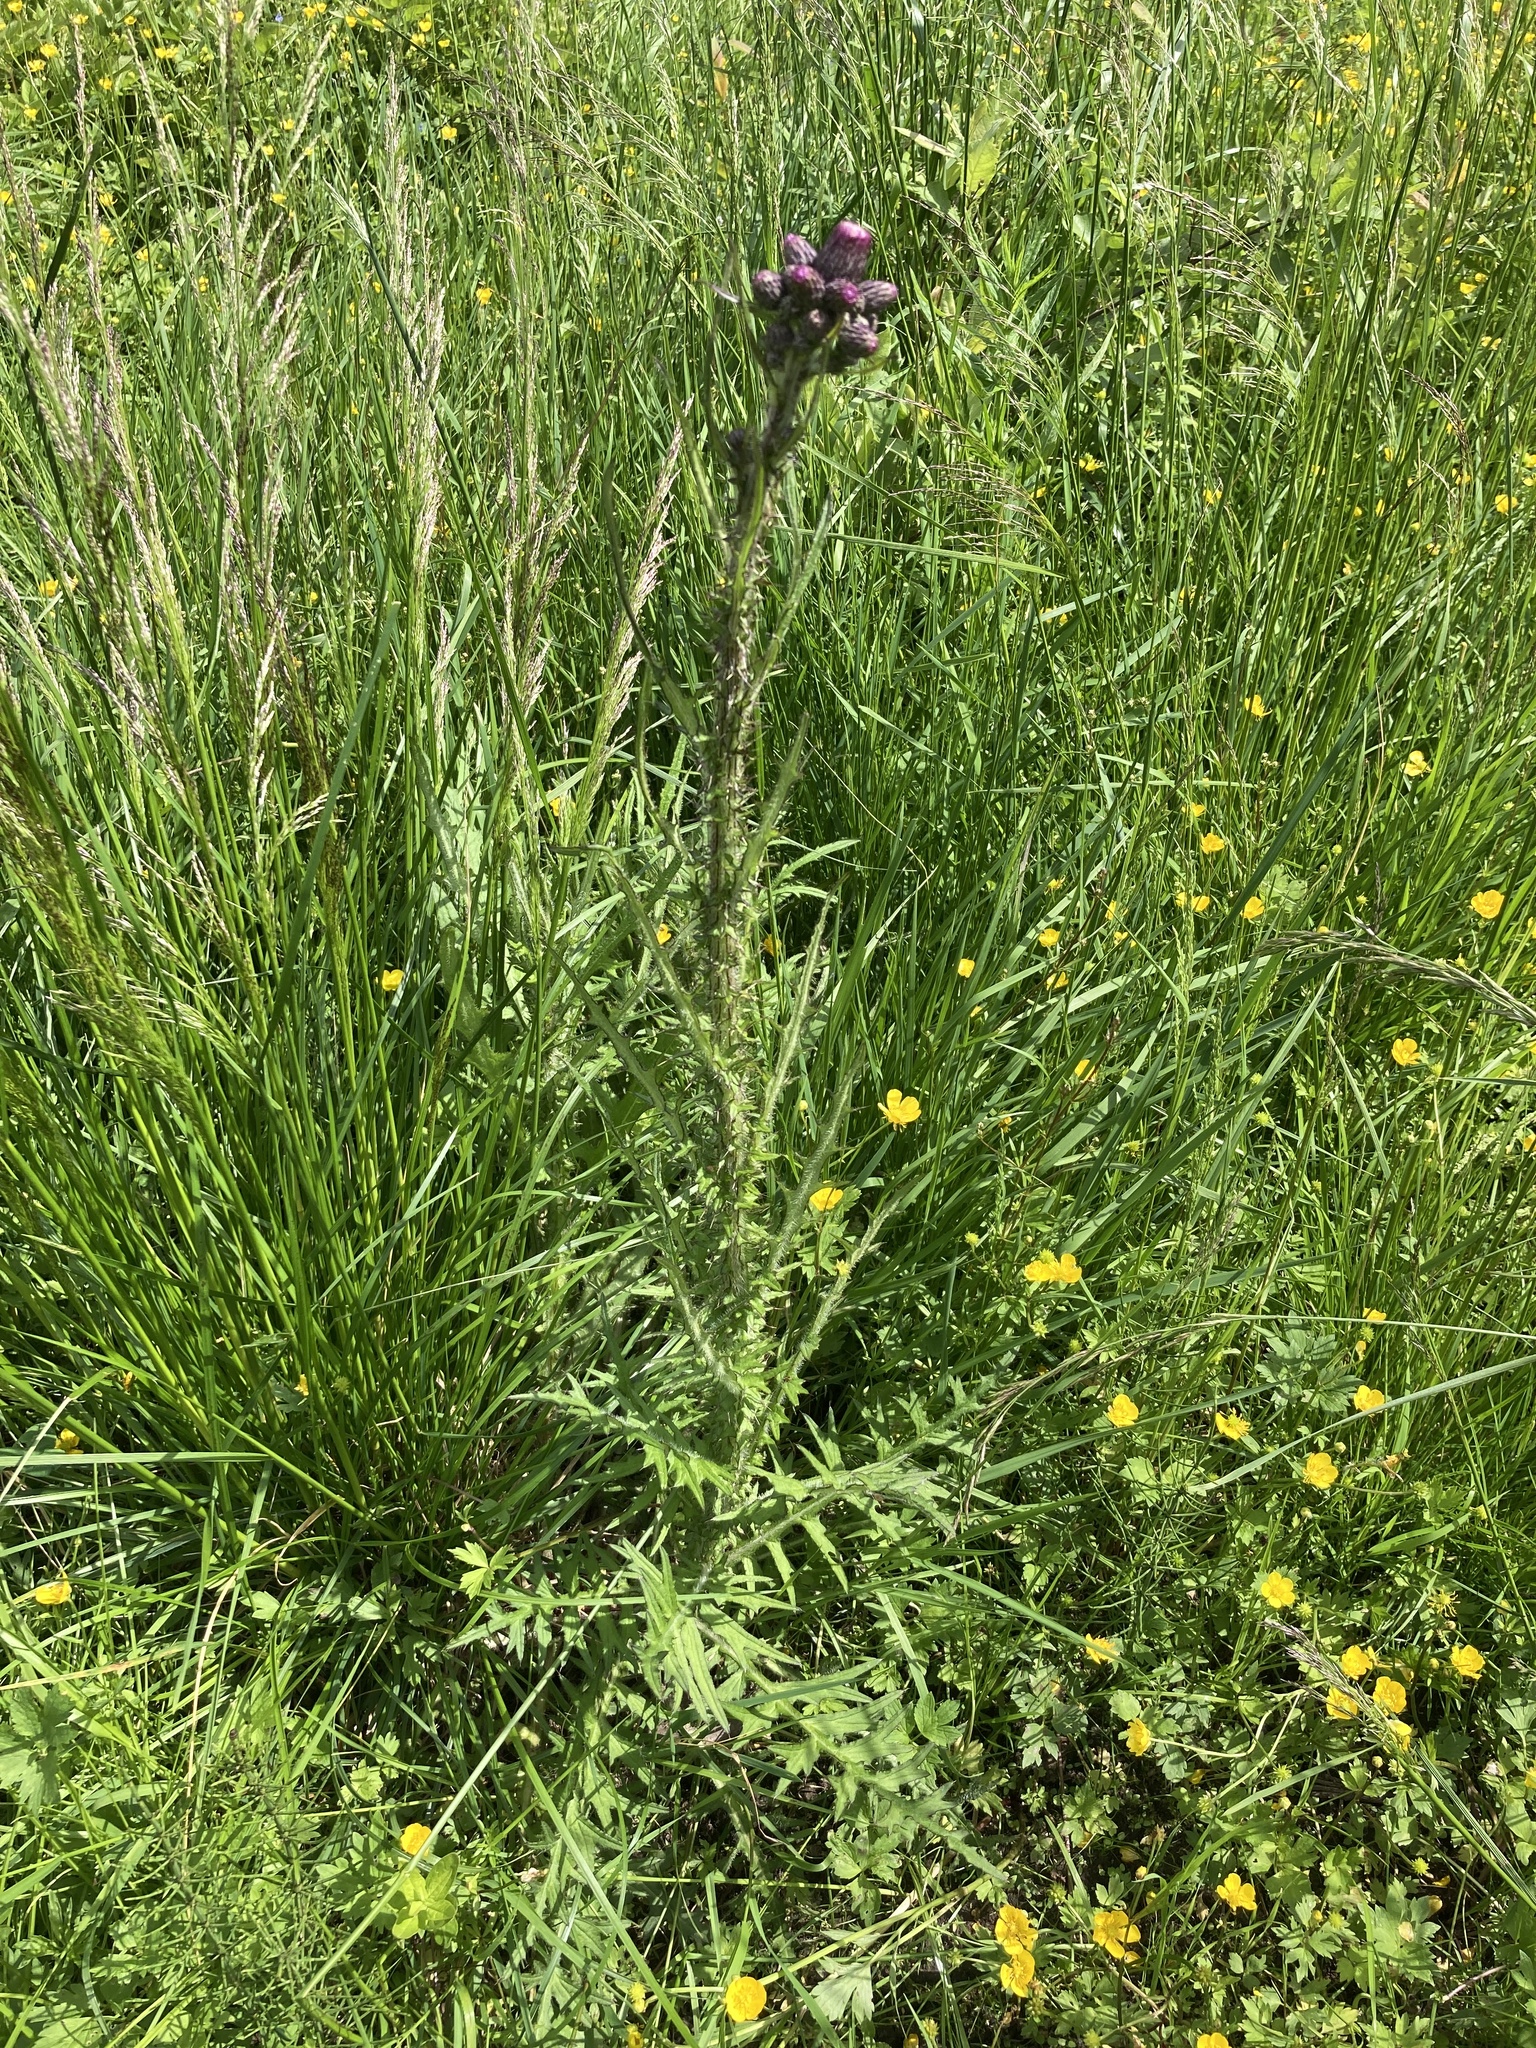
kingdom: Plantae
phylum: Tracheophyta
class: Magnoliopsida
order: Asterales
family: Asteraceae
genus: Cirsium
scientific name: Cirsium palustre
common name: Marsh thistle
